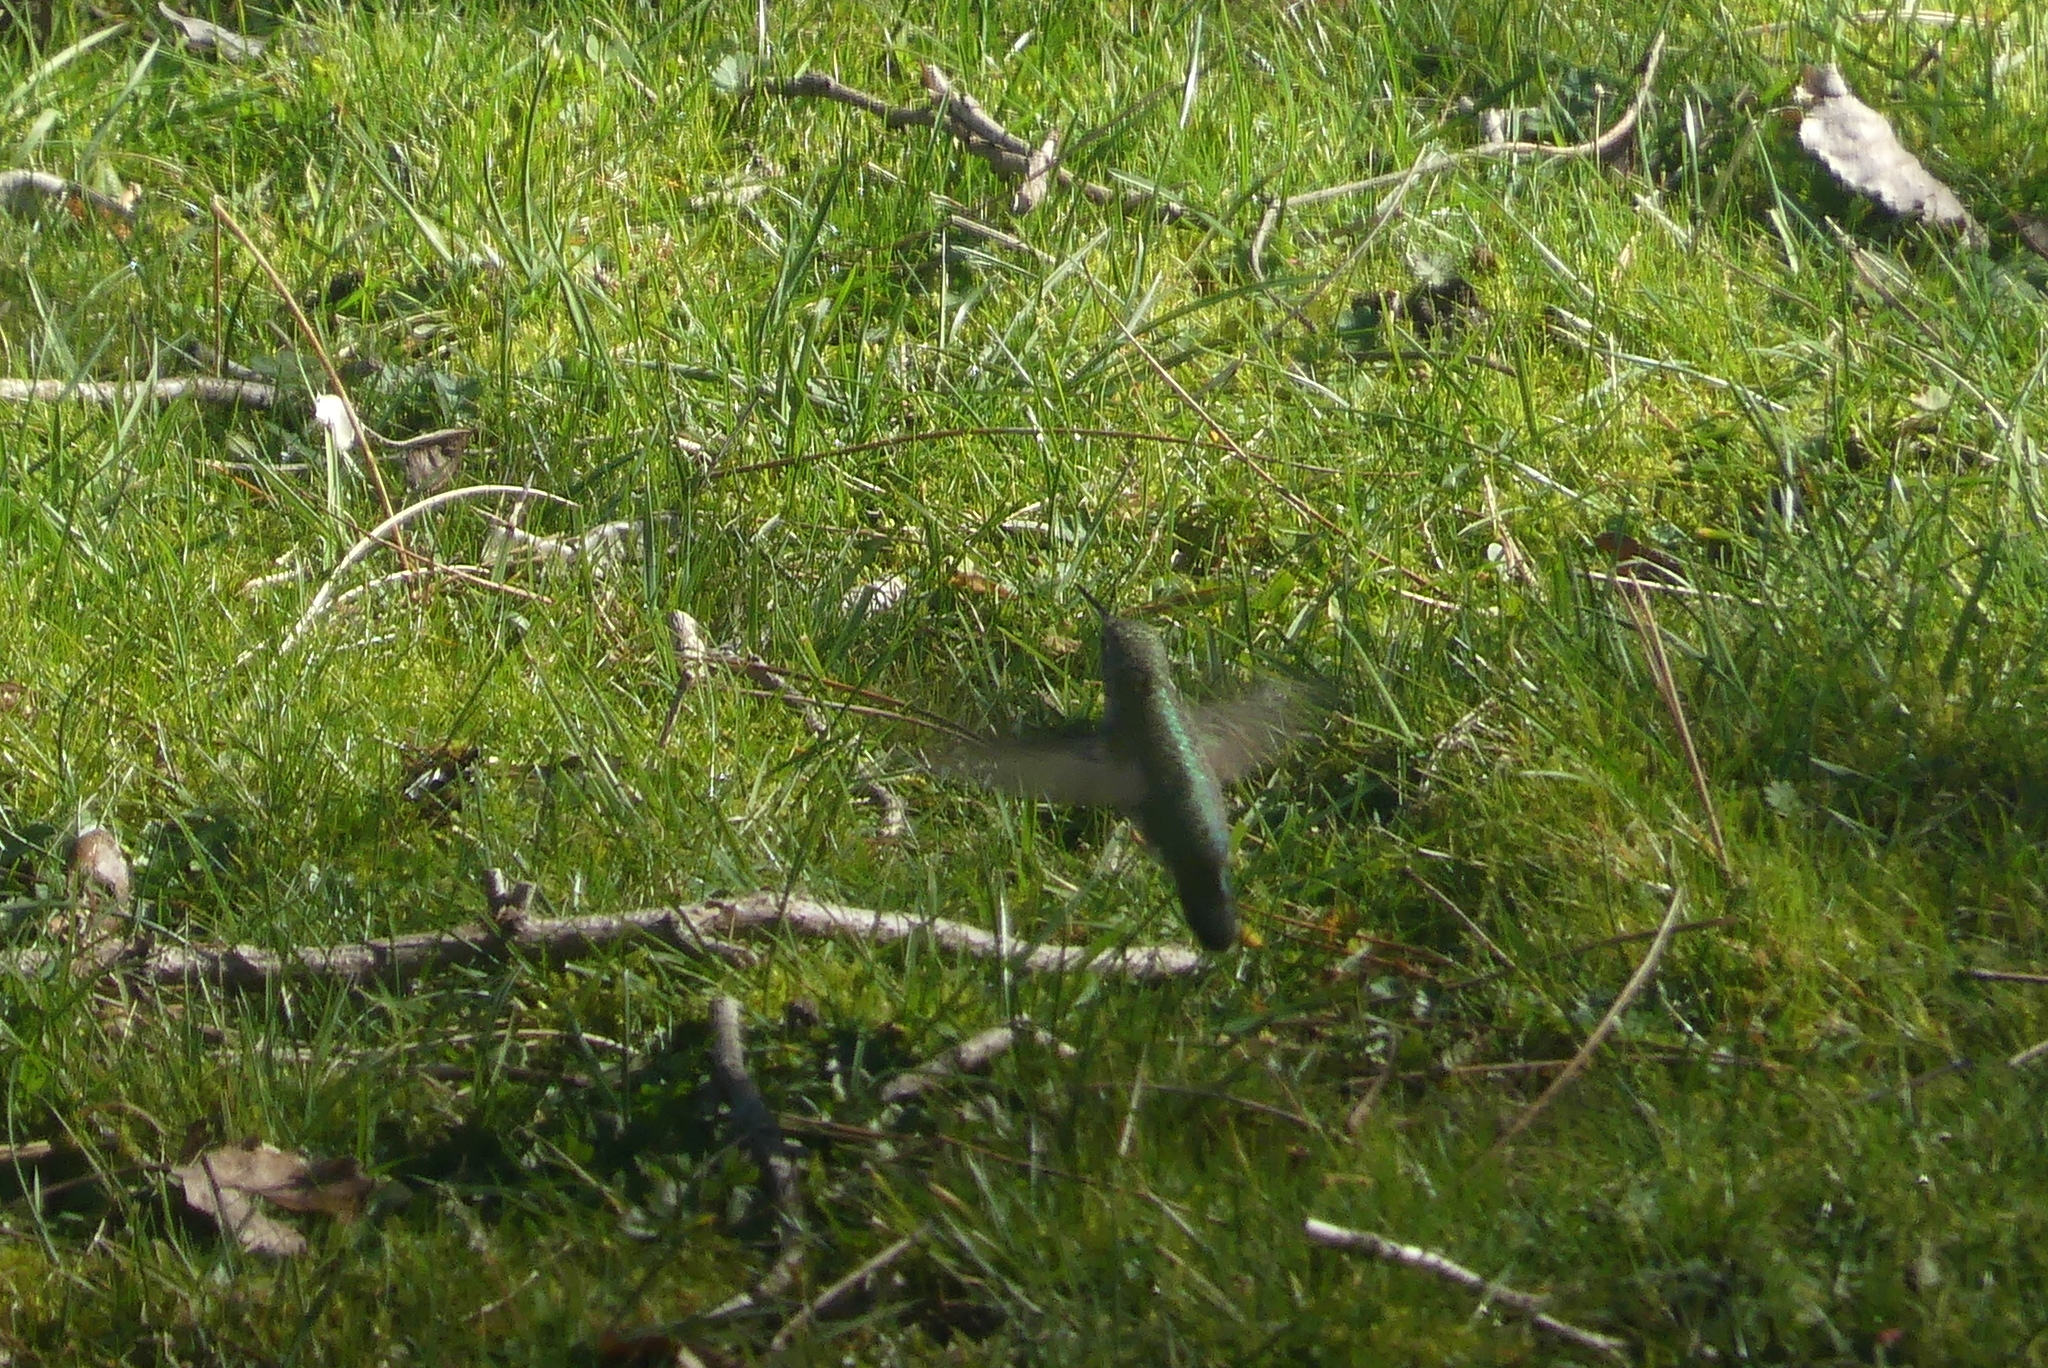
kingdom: Animalia
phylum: Chordata
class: Aves
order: Apodiformes
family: Trochilidae
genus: Calypte
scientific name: Calypte anna
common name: Anna's hummingbird
